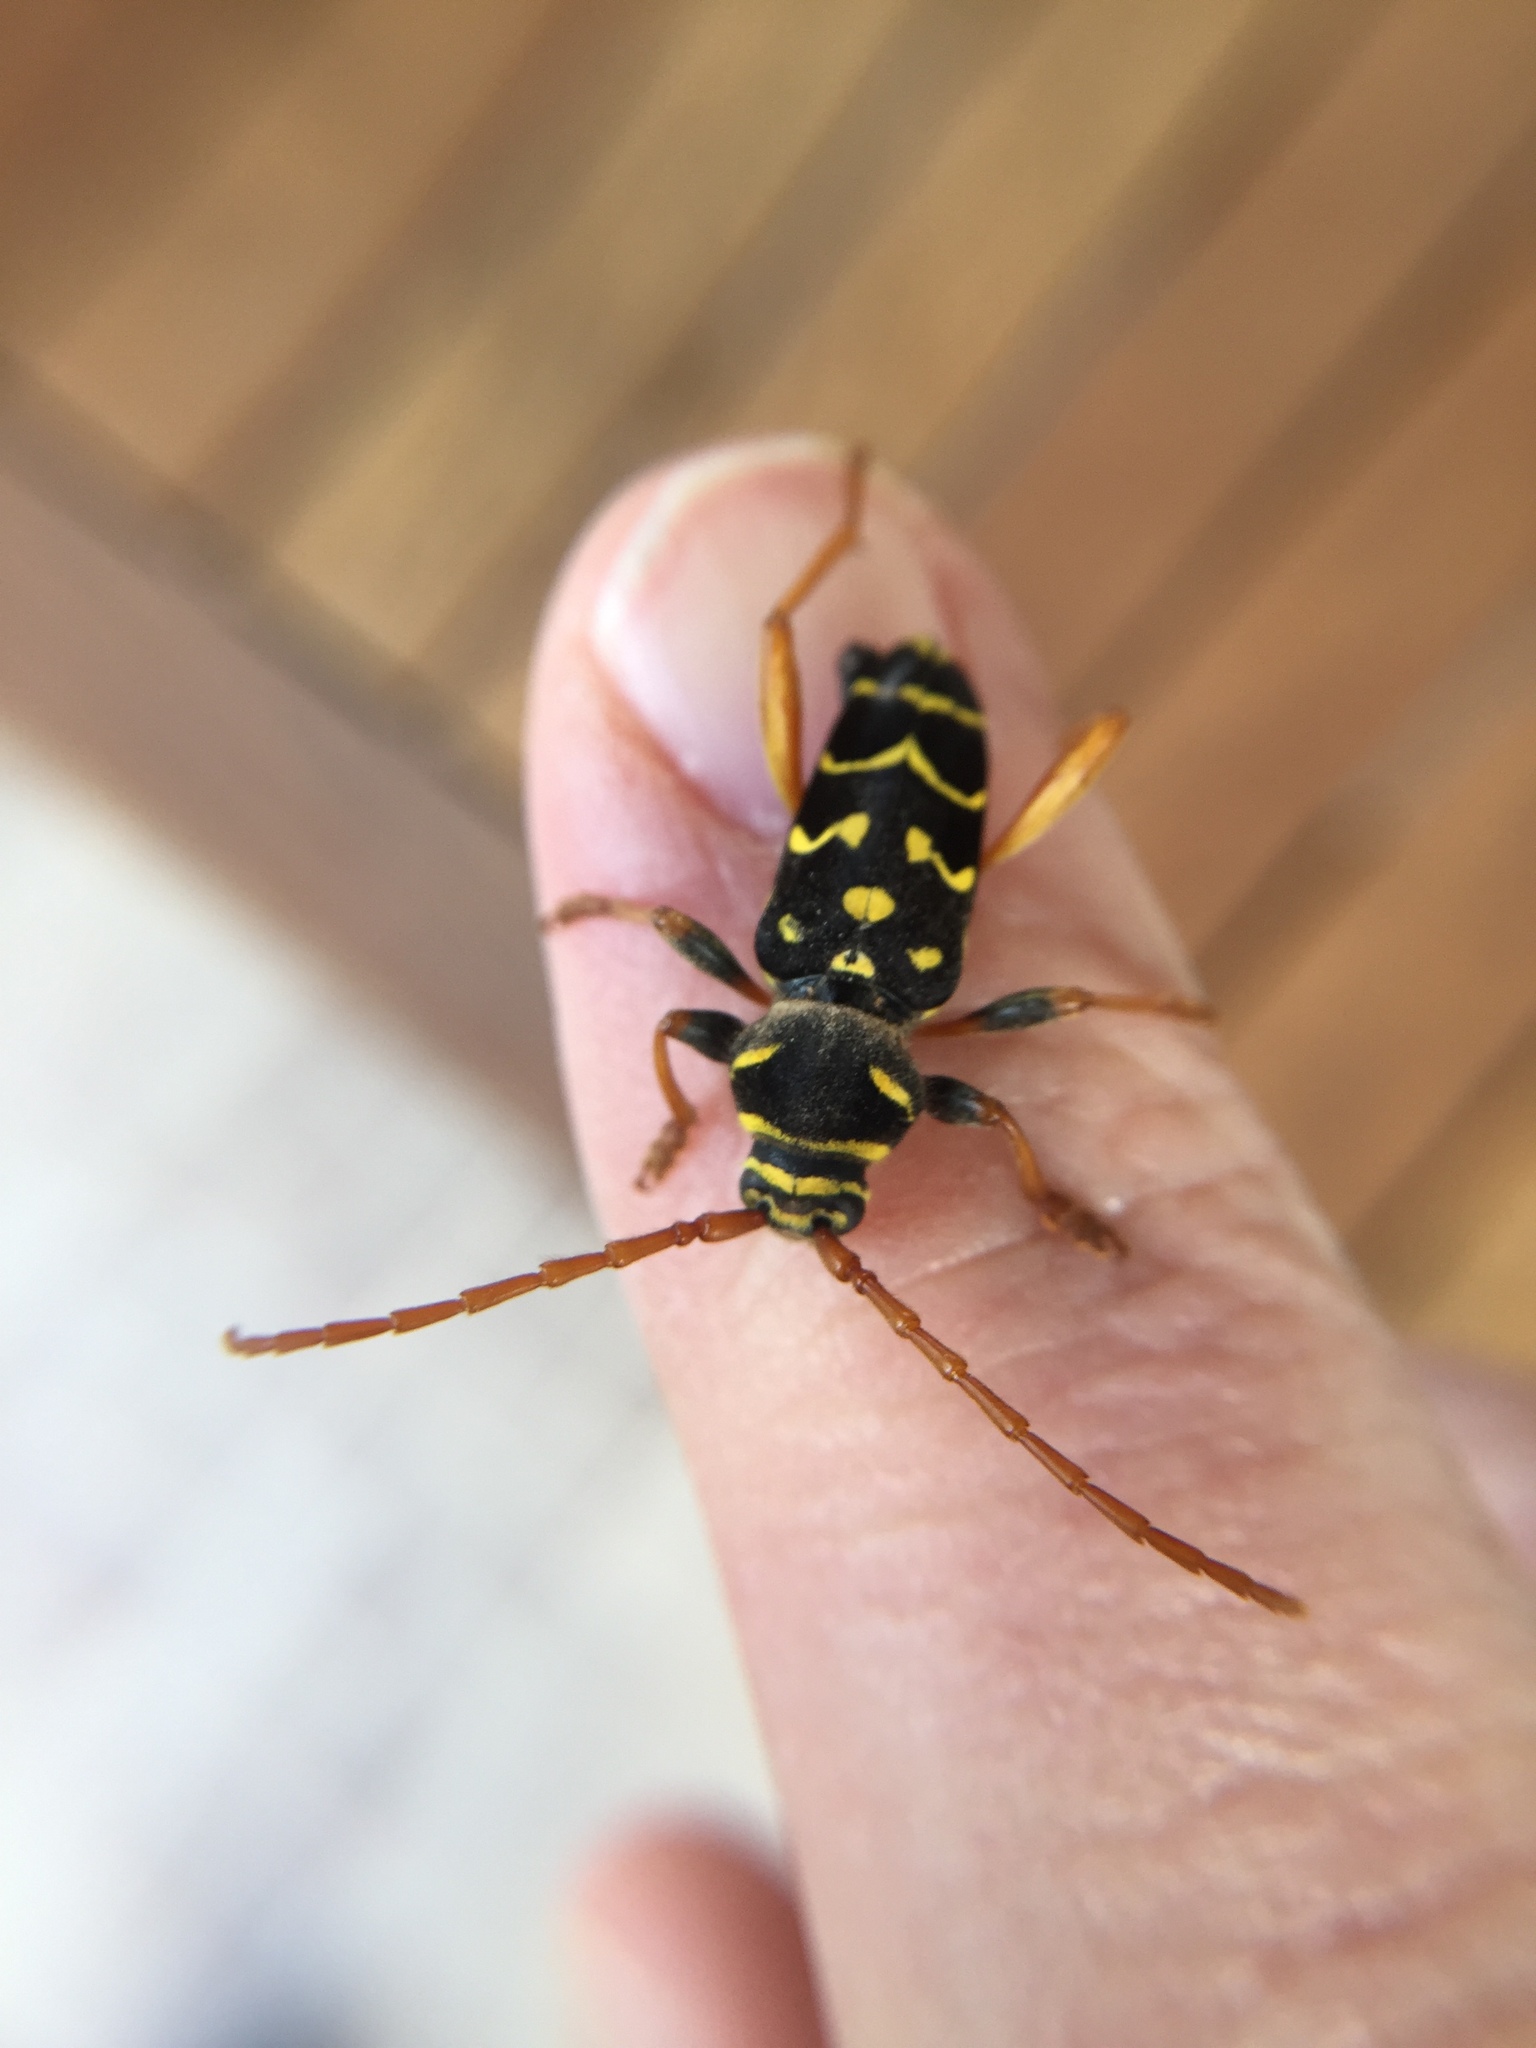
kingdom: Animalia
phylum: Arthropoda
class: Insecta
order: Coleoptera
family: Cerambycidae
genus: Plagionotus
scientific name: Plagionotus arcuatus
